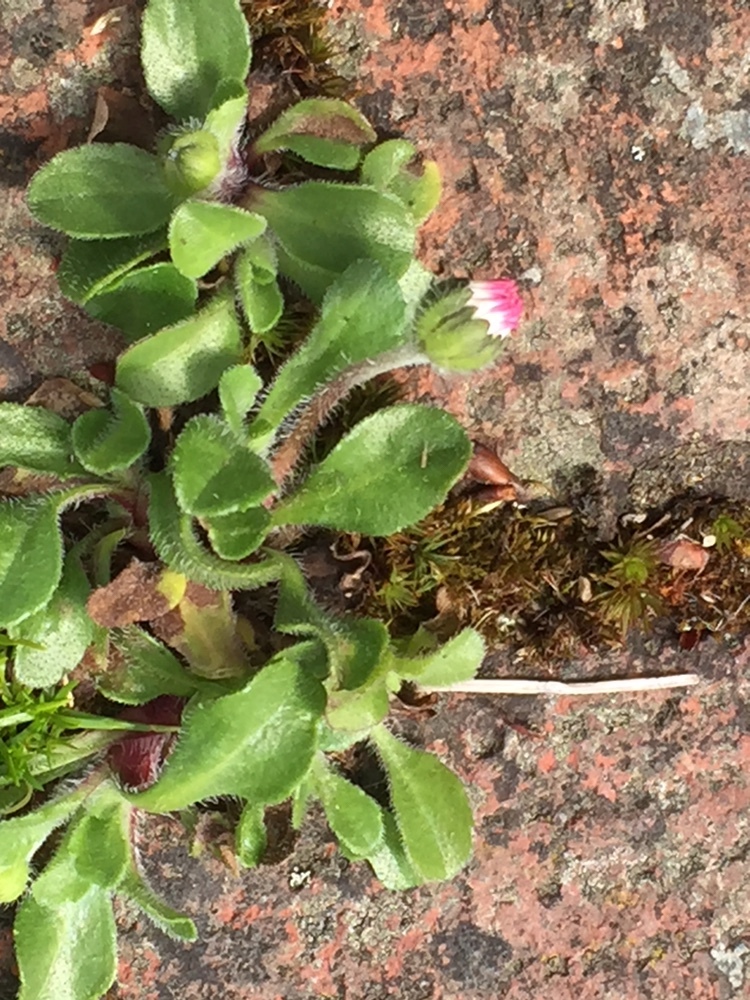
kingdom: Plantae
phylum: Tracheophyta
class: Magnoliopsida
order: Asterales
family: Asteraceae
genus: Bellis
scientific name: Bellis perennis
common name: Lawndaisy
